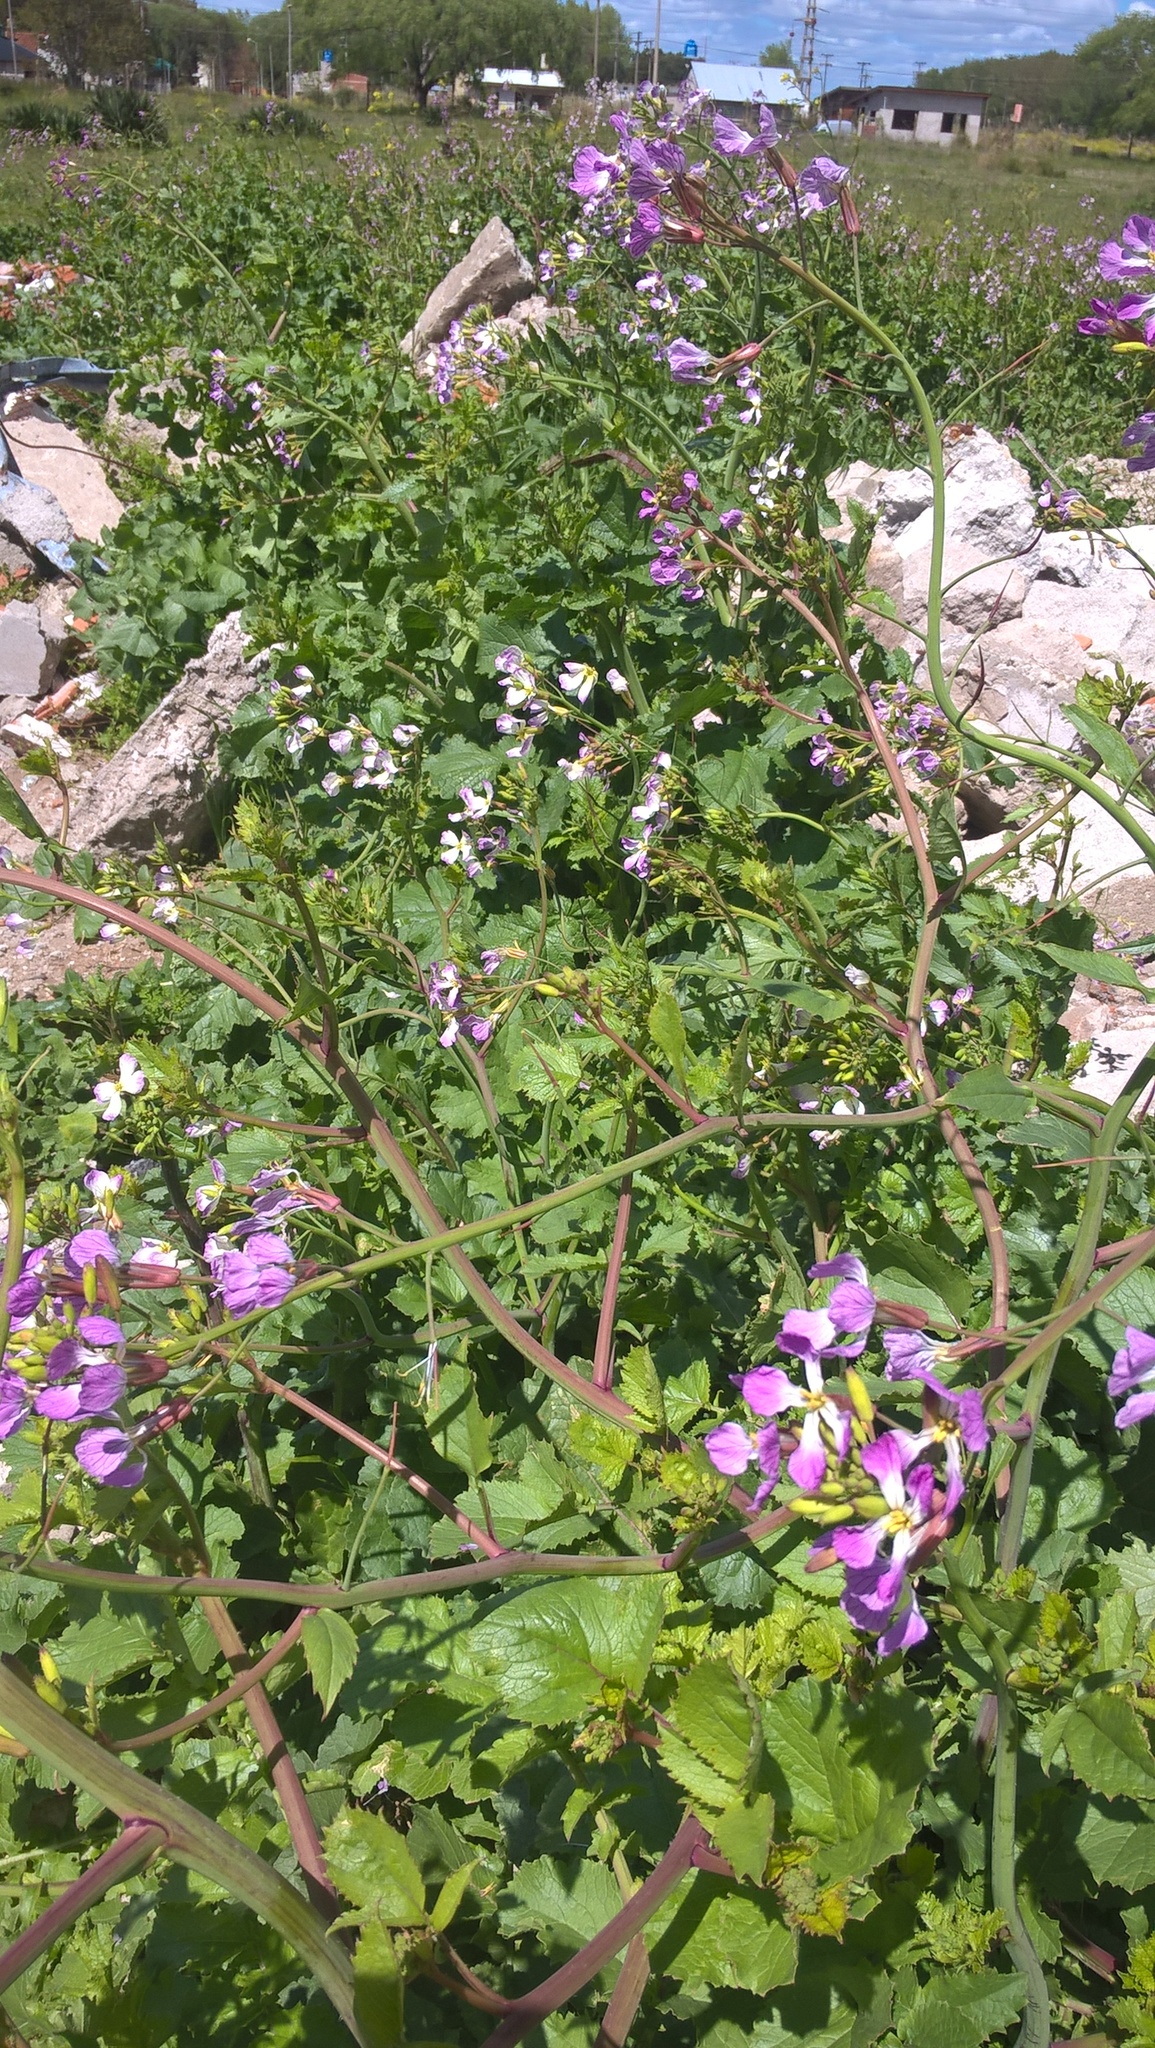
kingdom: Plantae
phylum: Tracheophyta
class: Magnoliopsida
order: Brassicales
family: Brassicaceae
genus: Raphanus
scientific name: Raphanus sativus
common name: Cultivated radish
